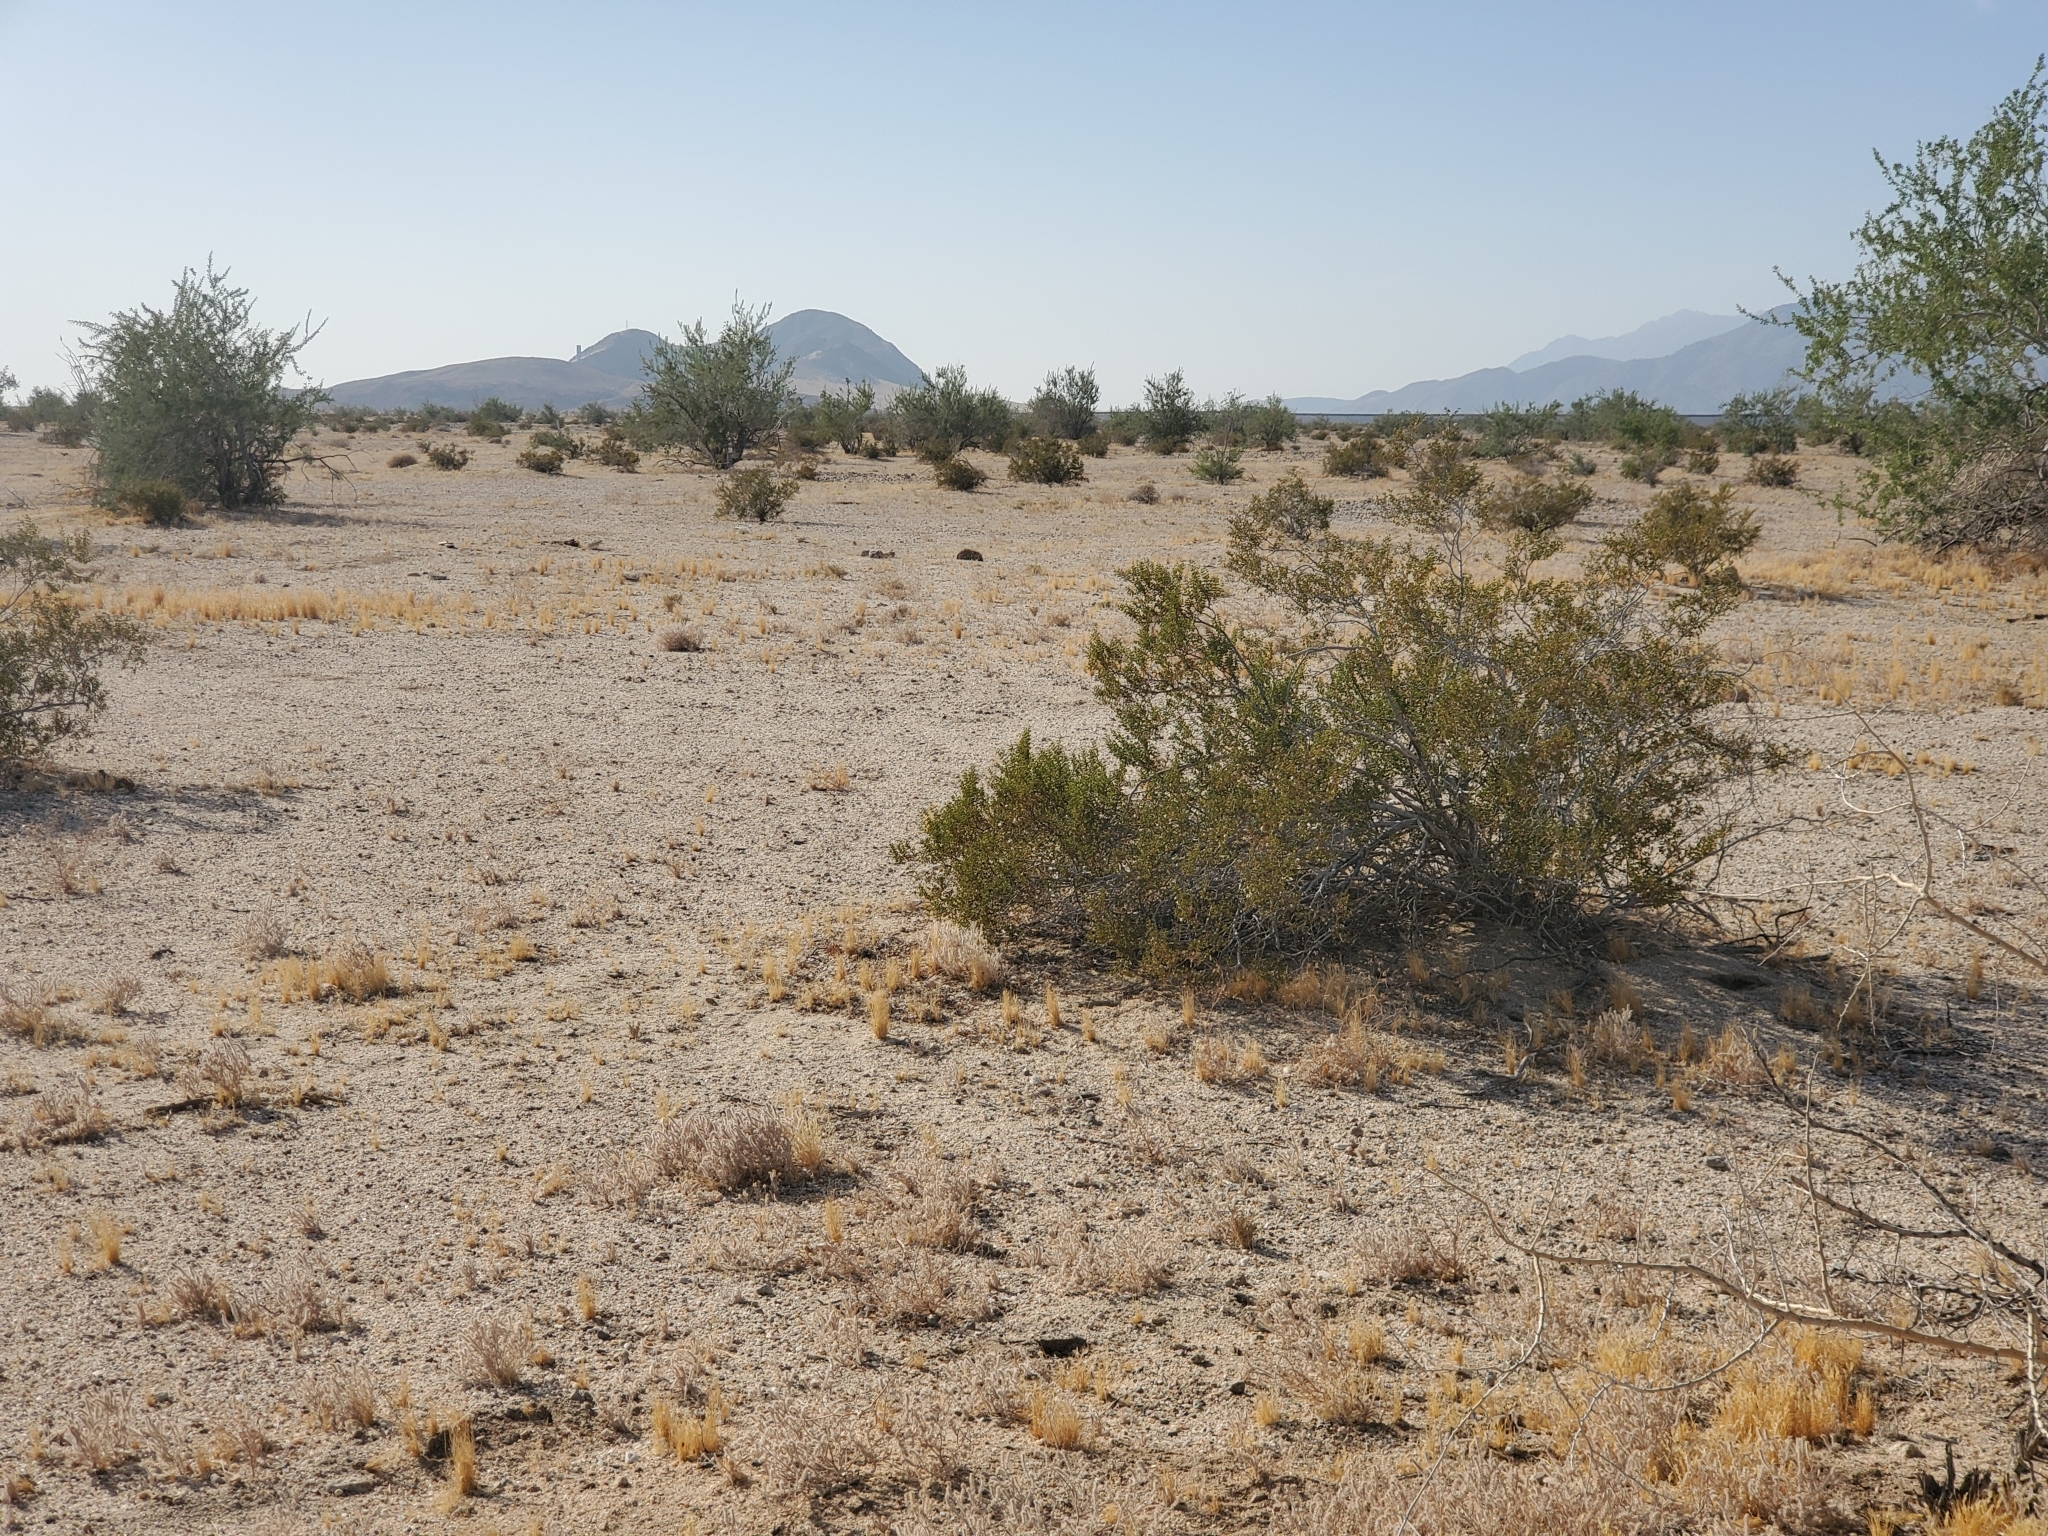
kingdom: Plantae
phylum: Tracheophyta
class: Magnoliopsida
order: Zygophyllales
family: Zygophyllaceae
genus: Larrea
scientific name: Larrea tridentata
